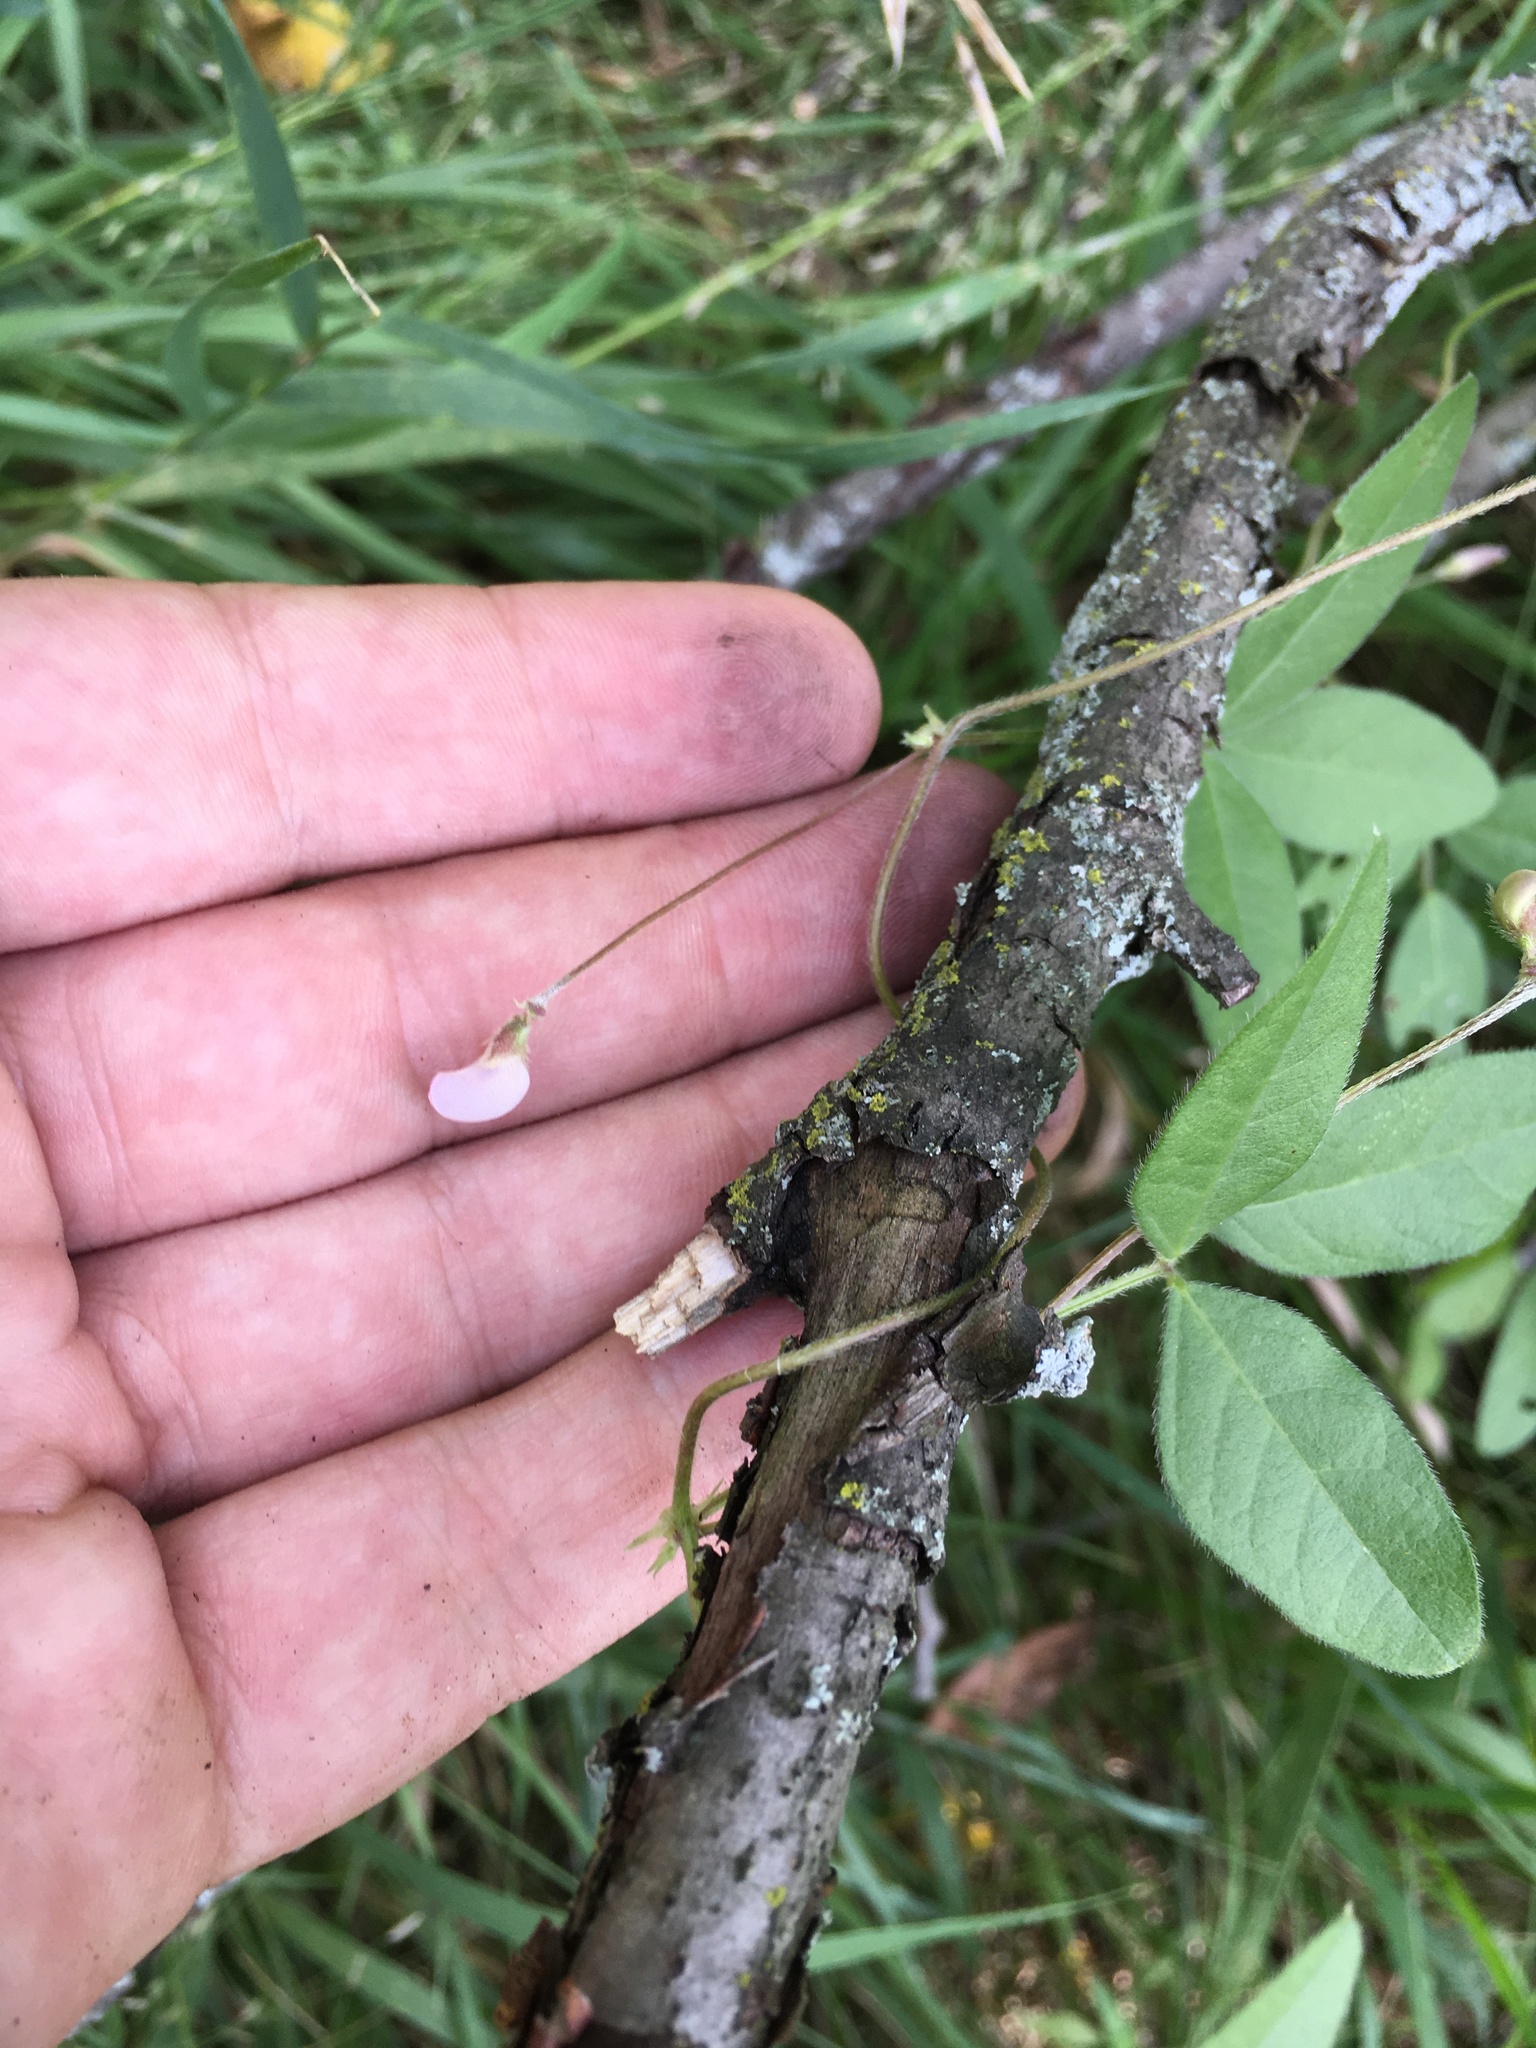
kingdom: Plantae
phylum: Tracheophyta
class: Magnoliopsida
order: Fabales
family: Fabaceae
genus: Strophostyles
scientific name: Strophostyles leiosperma
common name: Smooth-seed wild bean
